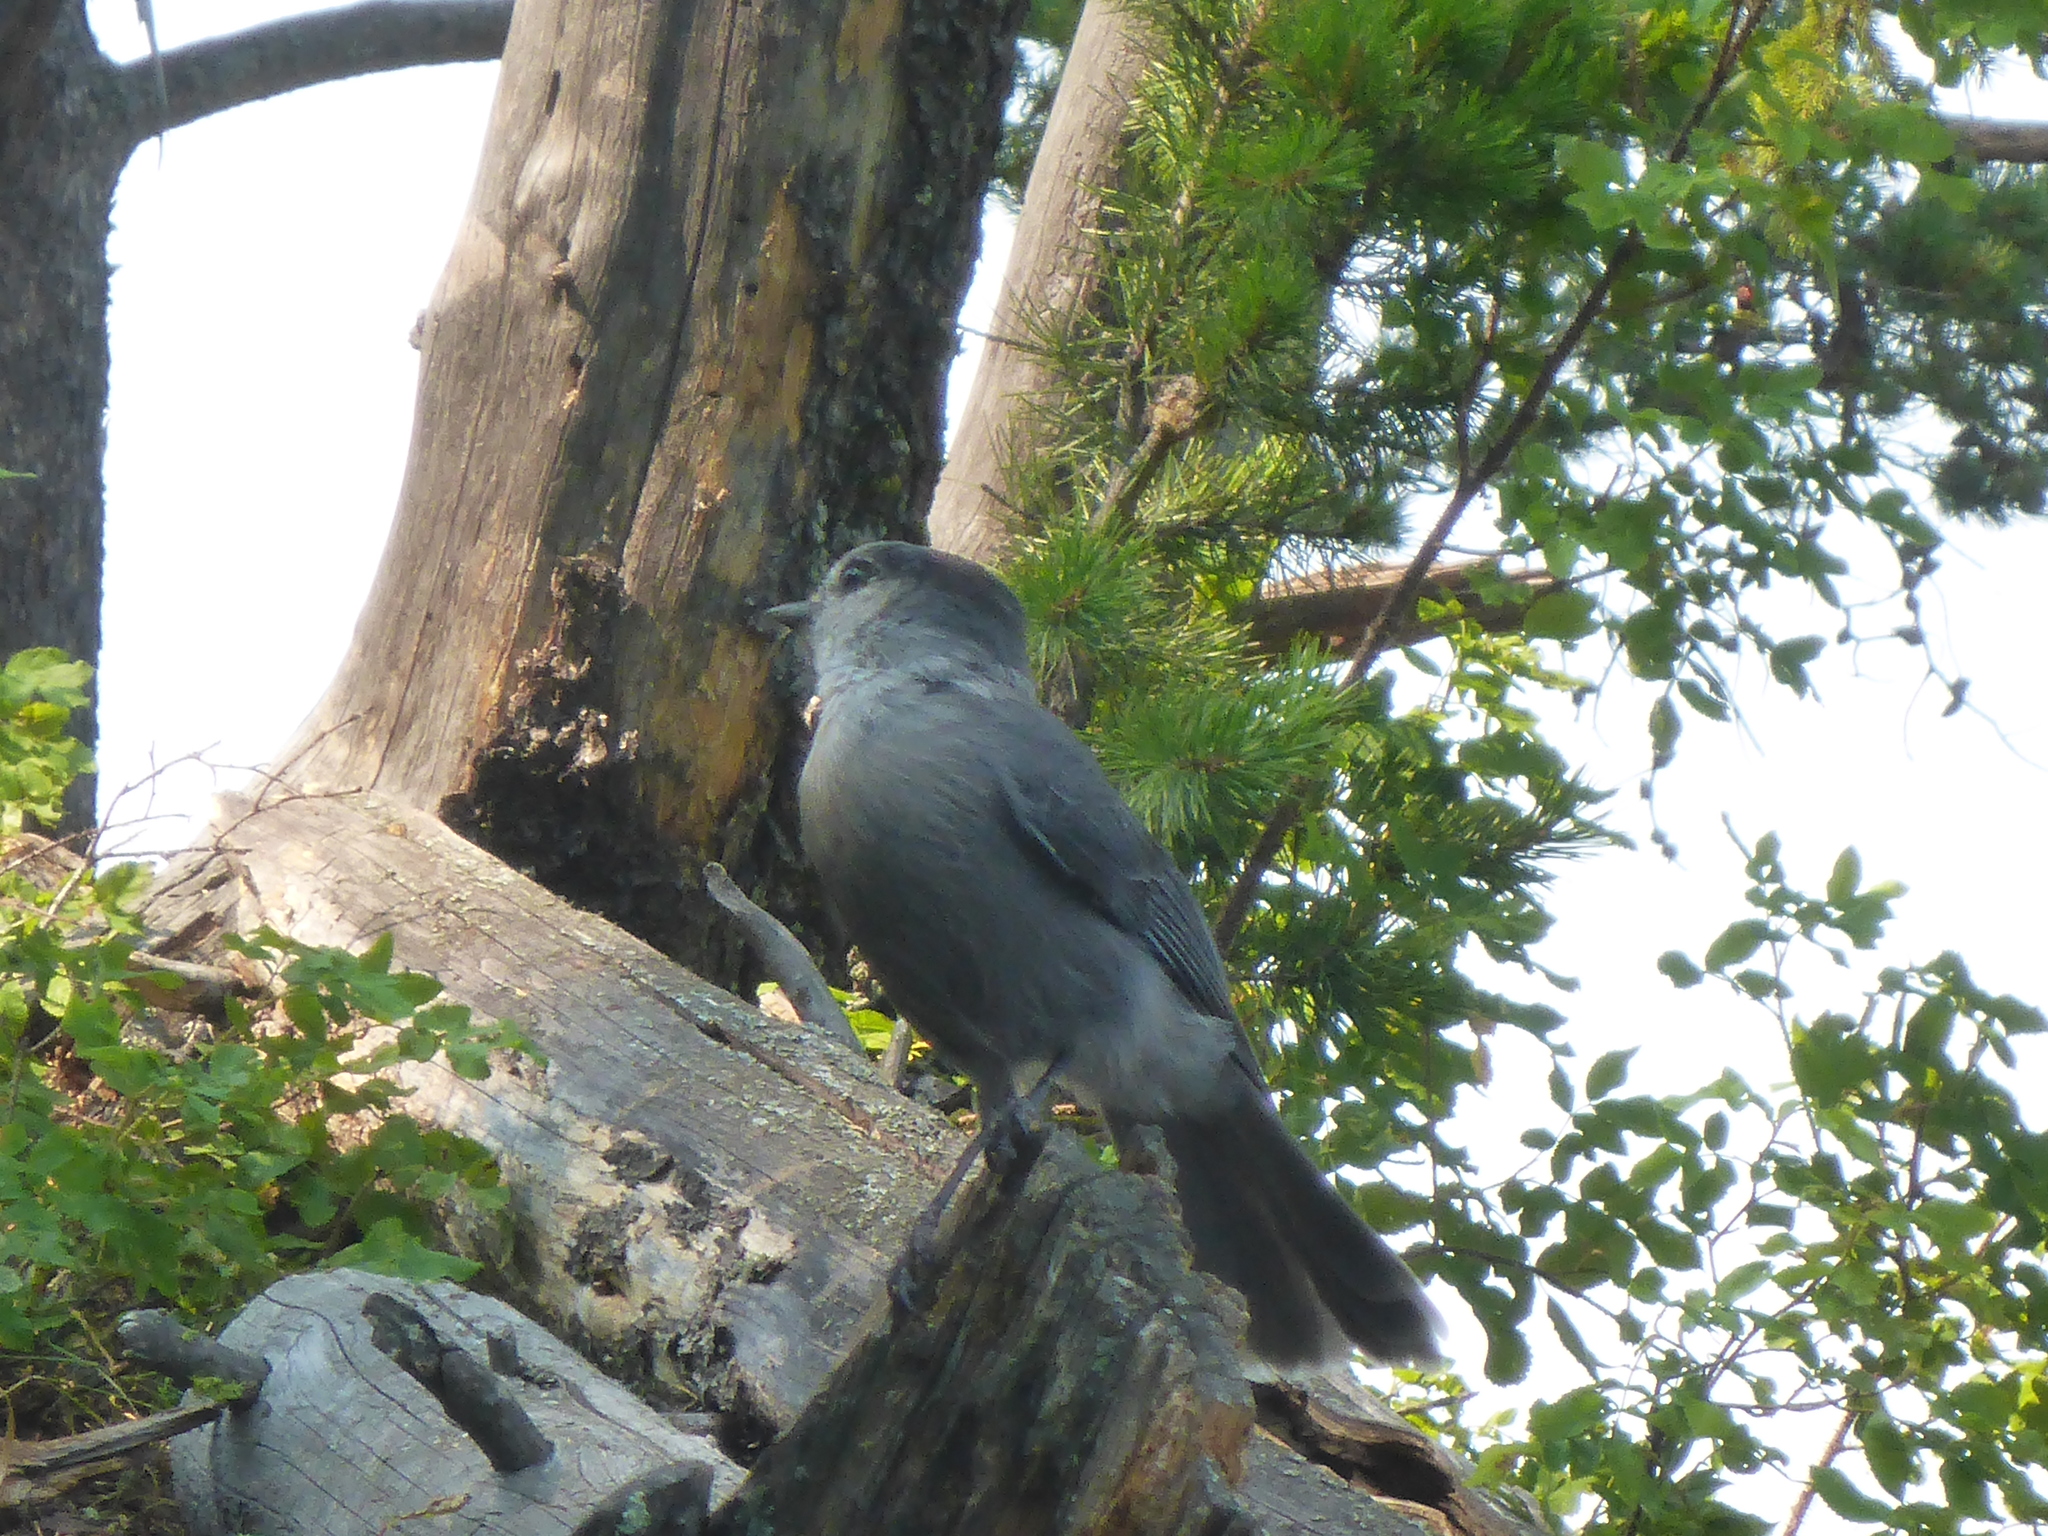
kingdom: Animalia
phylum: Chordata
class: Aves
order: Passeriformes
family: Corvidae
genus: Perisoreus
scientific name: Perisoreus canadensis
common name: Gray jay
